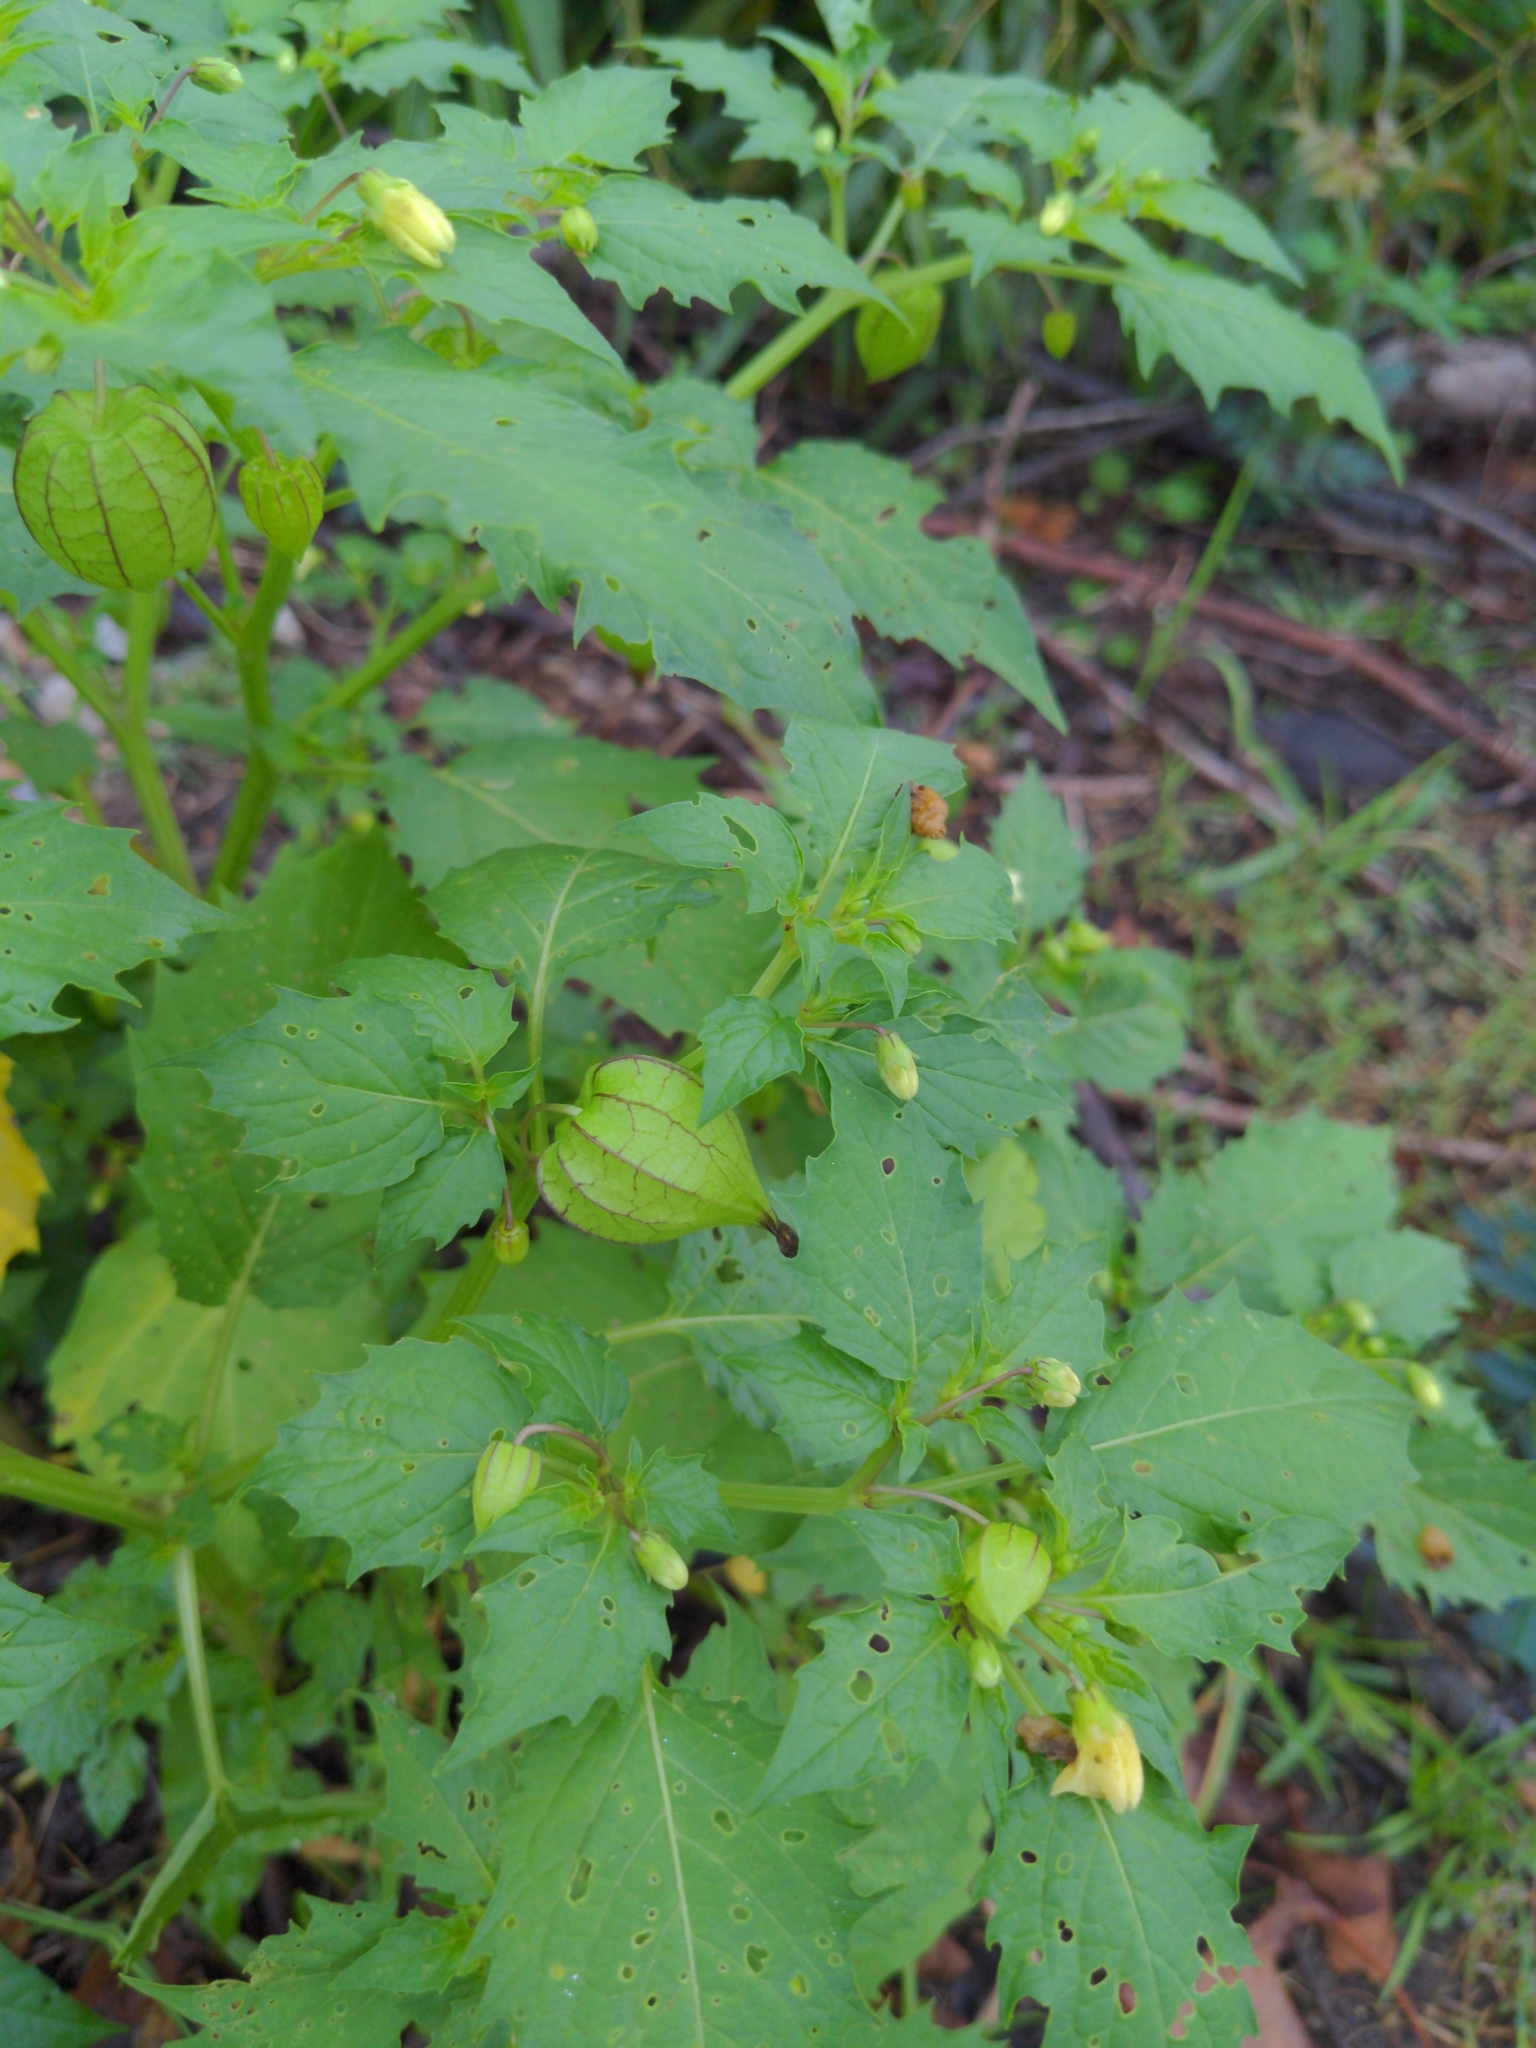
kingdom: Plantae
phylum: Tracheophyta
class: Magnoliopsida
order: Solanales
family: Solanaceae
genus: Physalis
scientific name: Physalis angulata
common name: Angular winter-cherry
